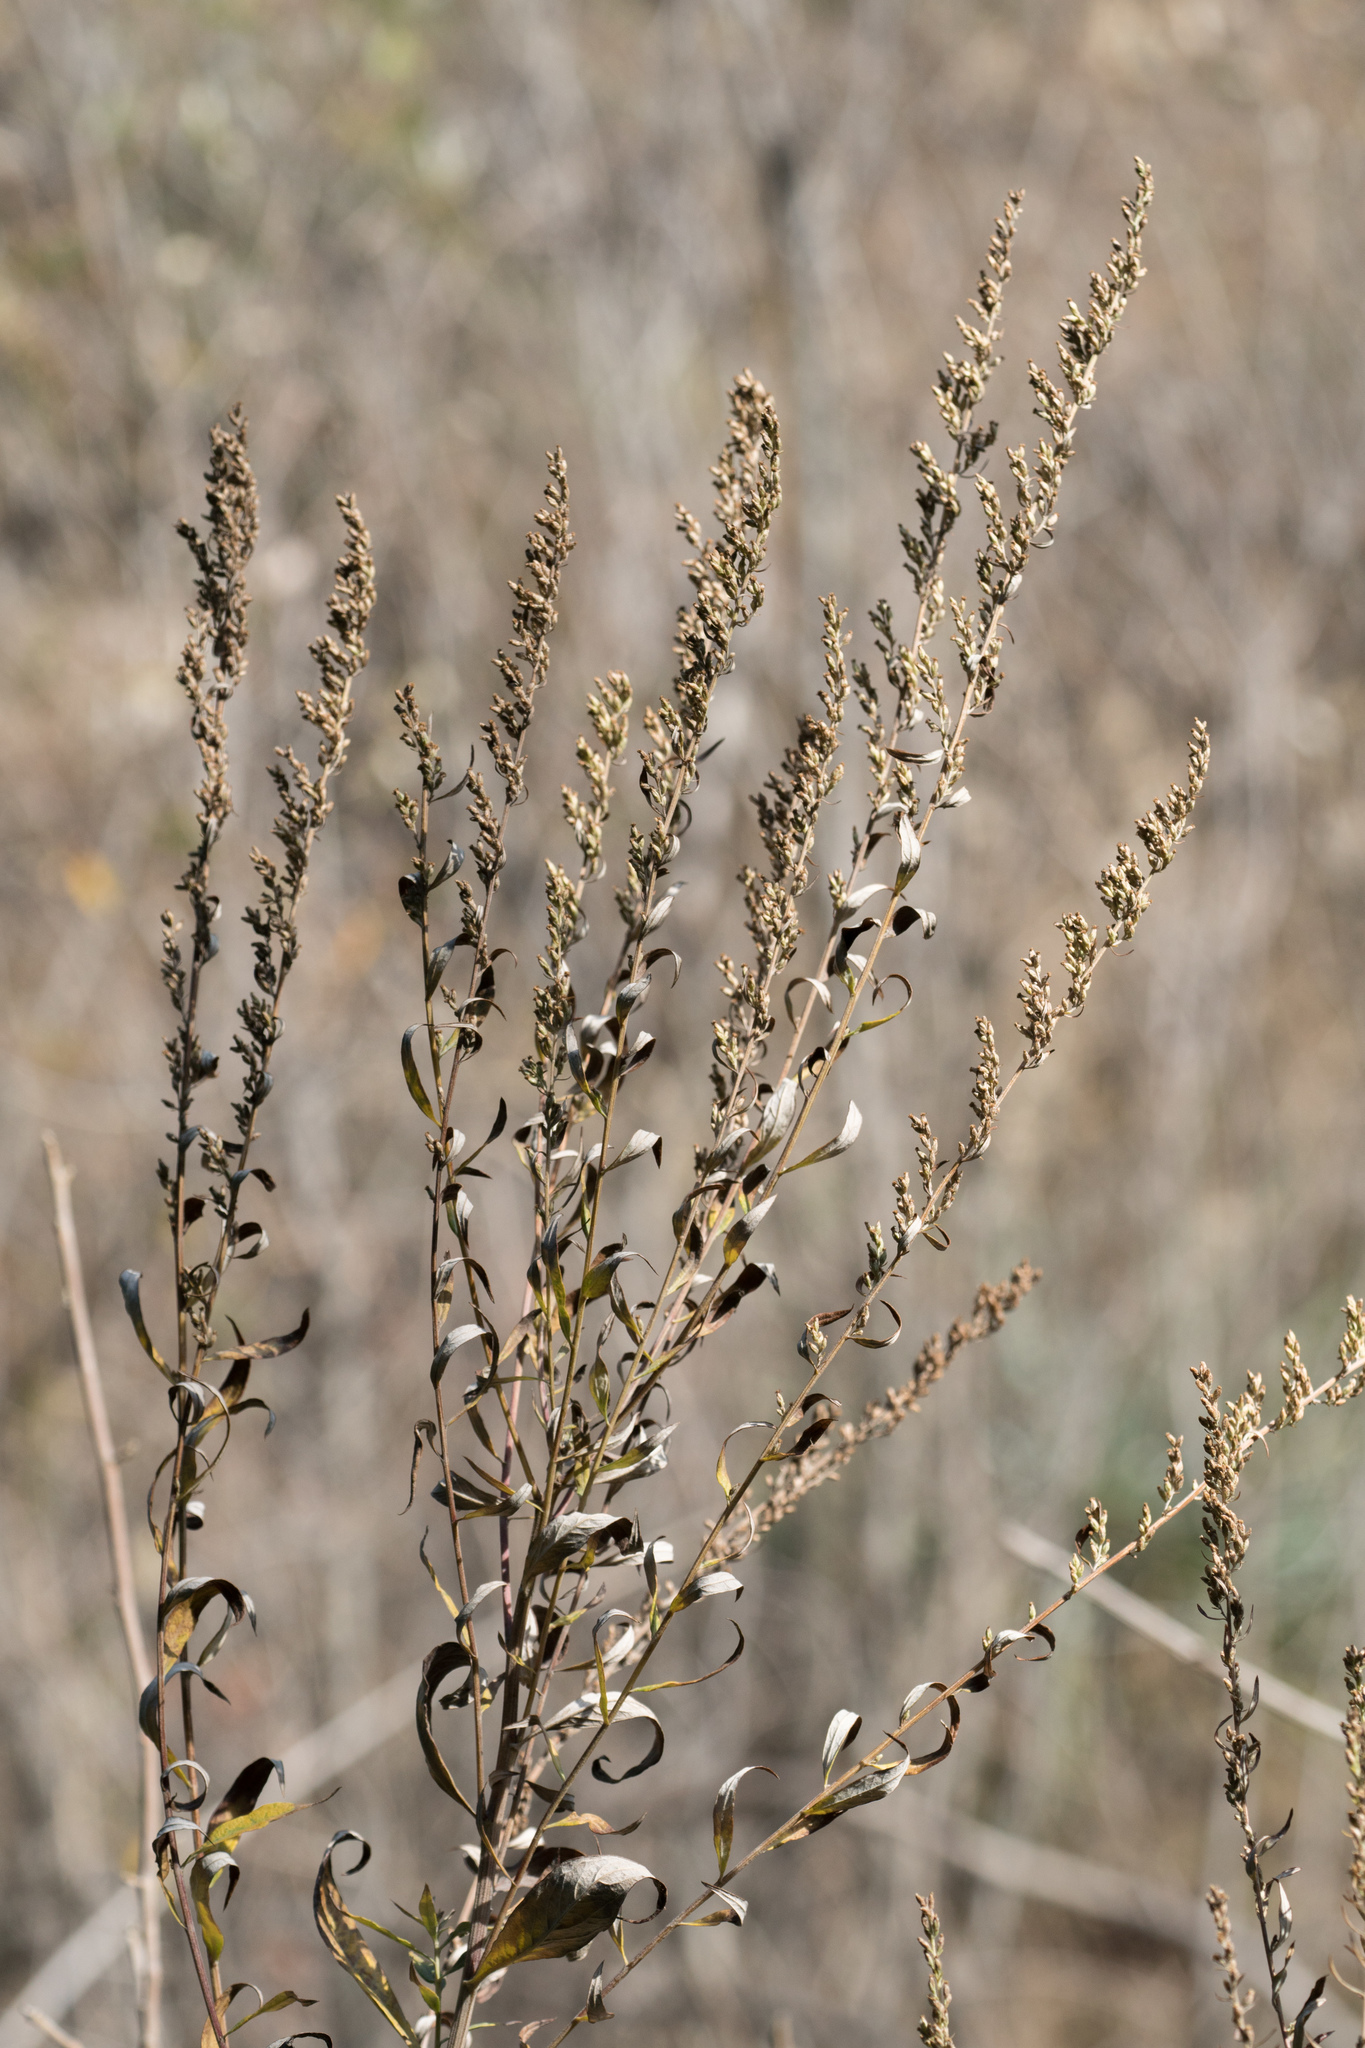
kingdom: Plantae
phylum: Tracheophyta
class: Magnoliopsida
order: Asterales
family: Asteraceae
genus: Artemisia
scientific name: Artemisia douglasiana
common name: Northwest mugwort
